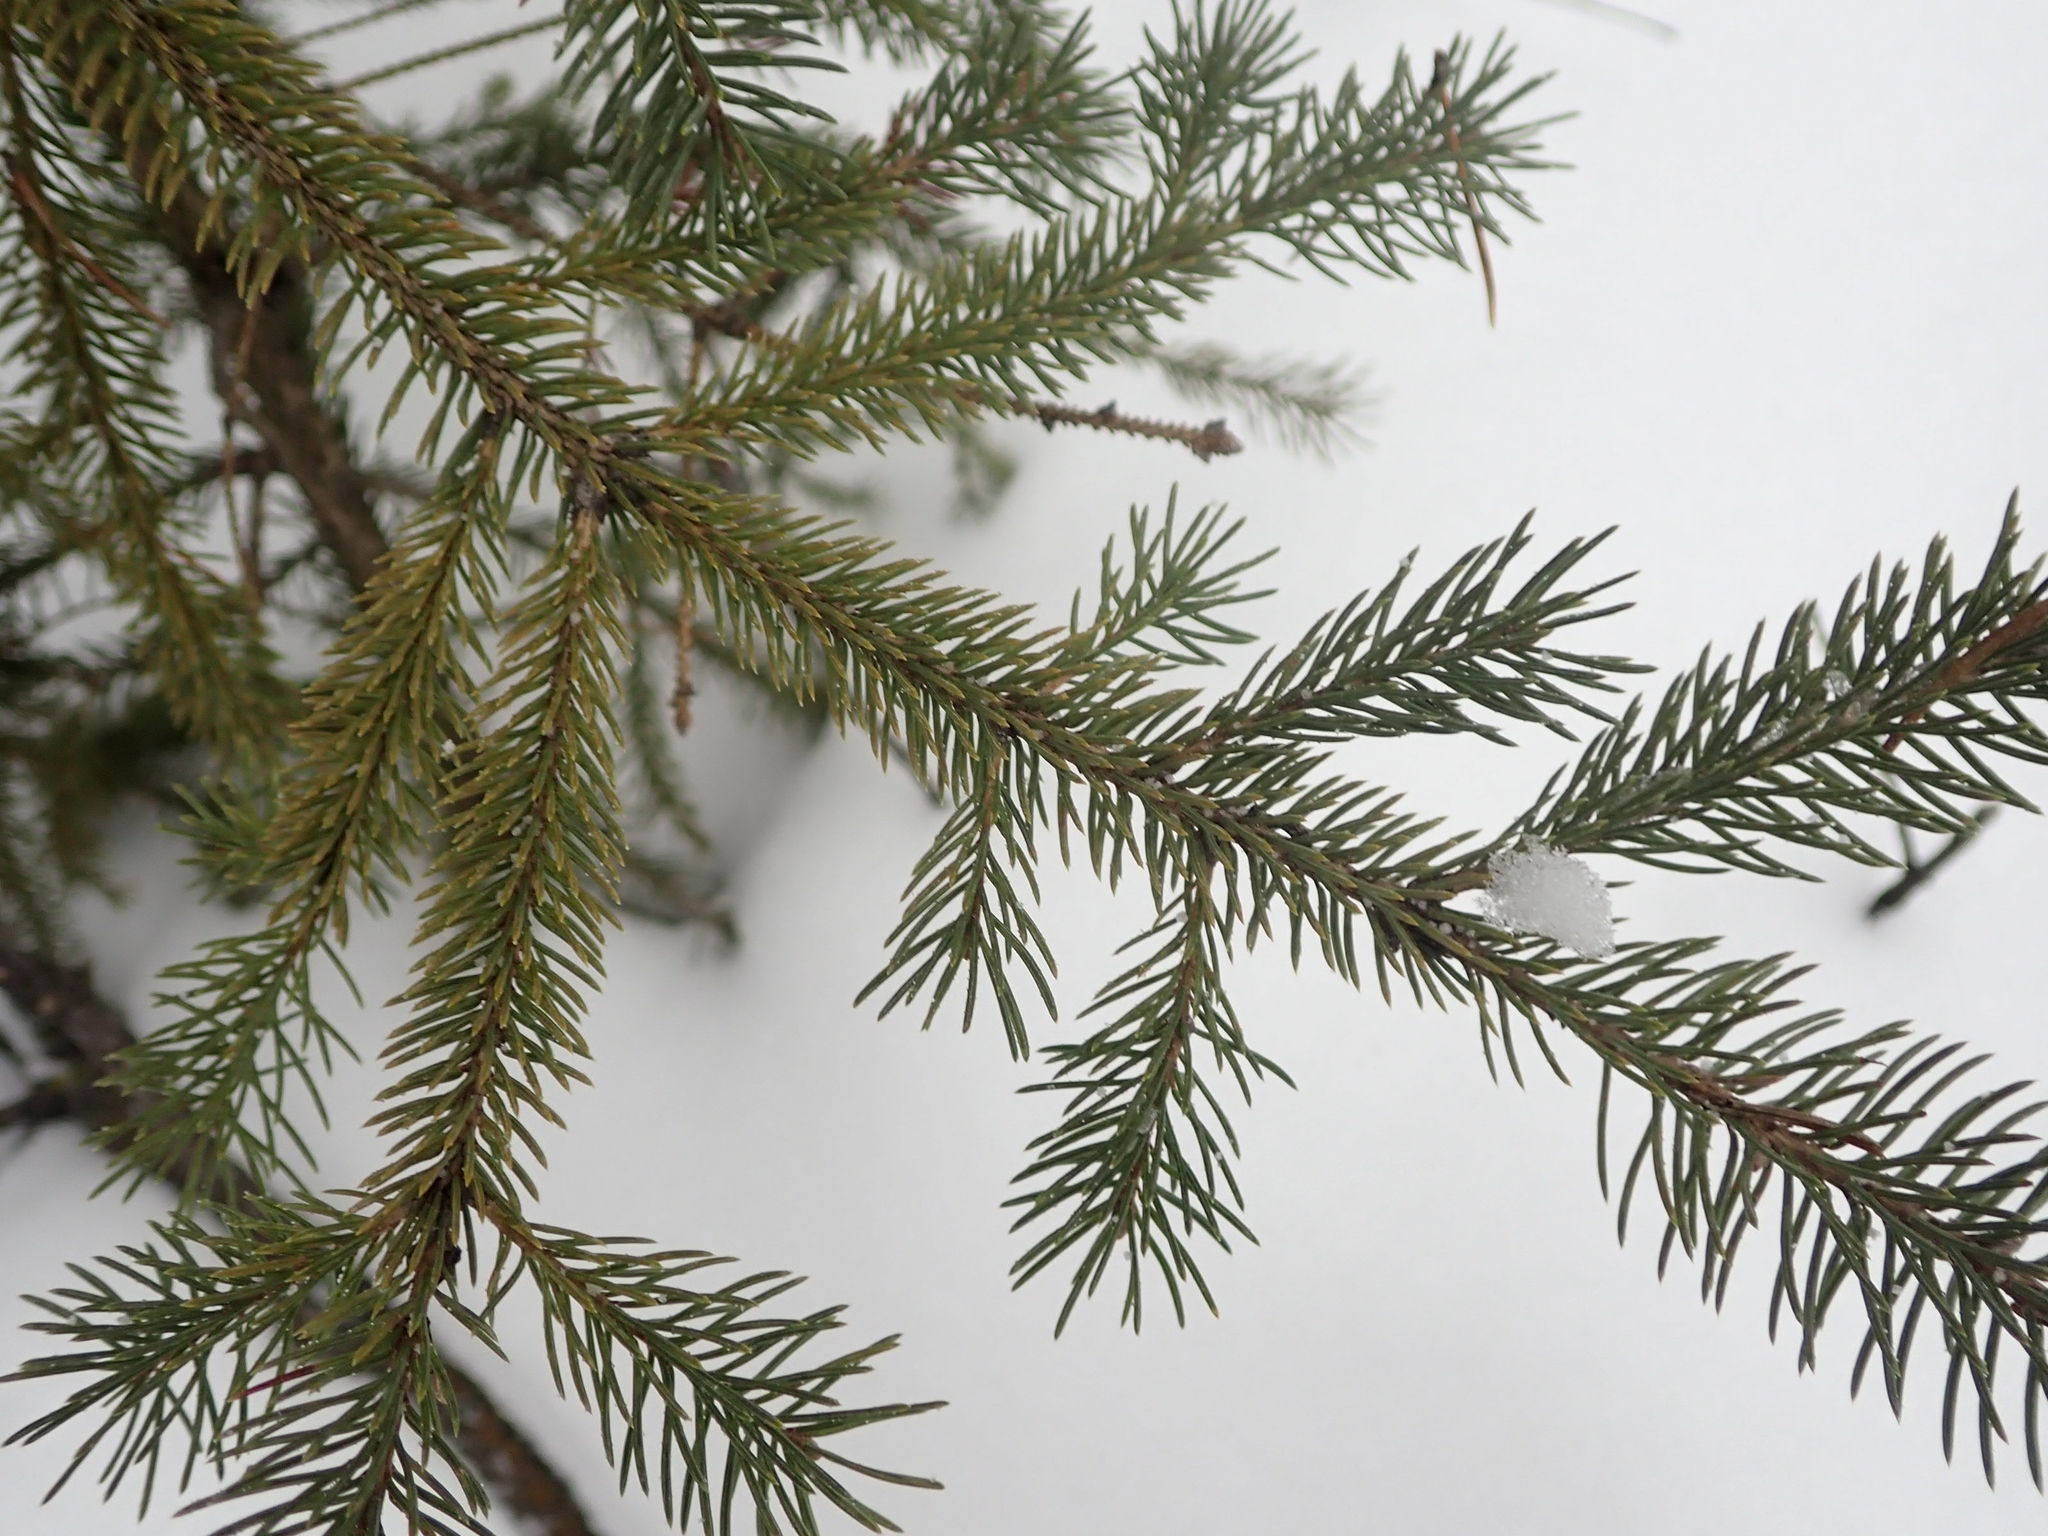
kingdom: Plantae
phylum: Tracheophyta
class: Pinopsida
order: Pinales
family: Pinaceae
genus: Picea
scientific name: Picea glauca
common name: White spruce
